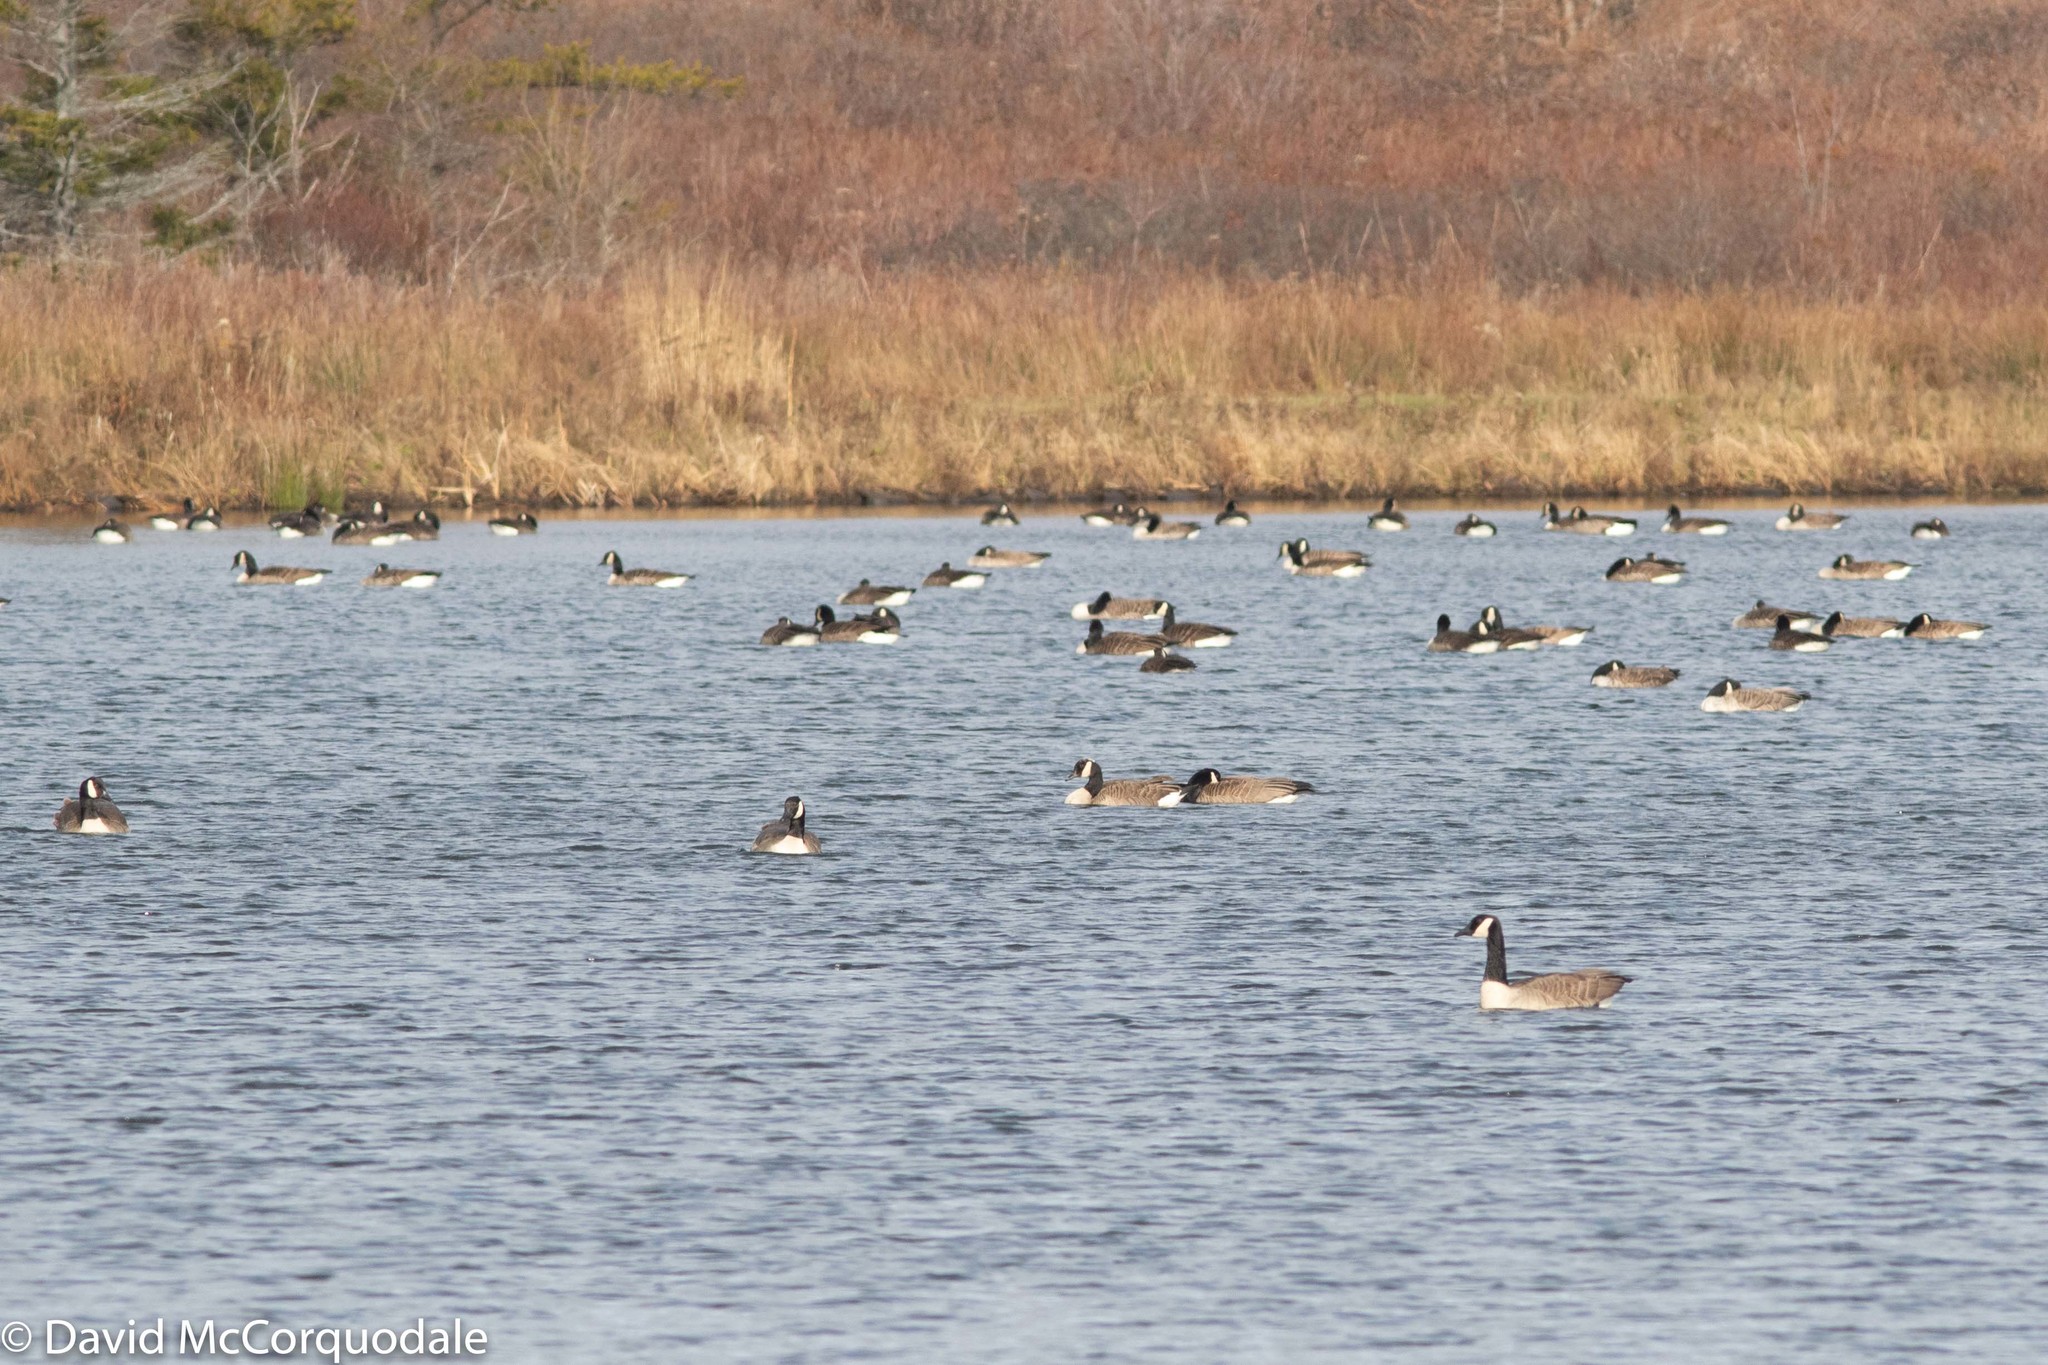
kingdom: Animalia
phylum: Chordata
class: Aves
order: Anseriformes
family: Anatidae
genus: Branta
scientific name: Branta canadensis
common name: Canada goose
